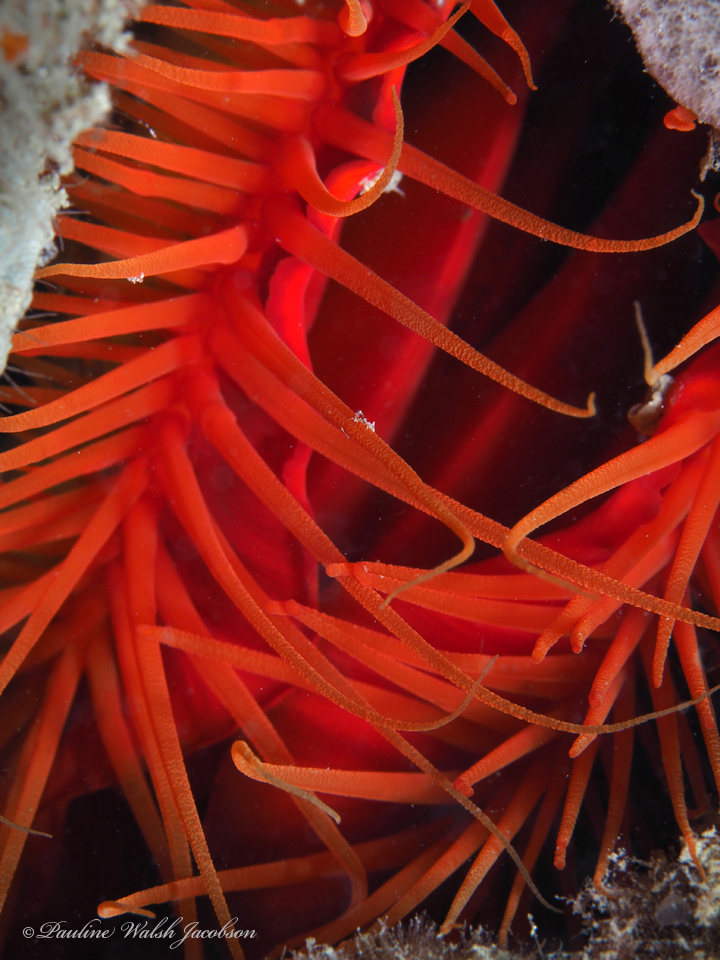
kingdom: Animalia
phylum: Mollusca
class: Bivalvia
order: Limida
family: Limidae
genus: Ctenoides
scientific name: Ctenoides scaber
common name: Rough fileclam
